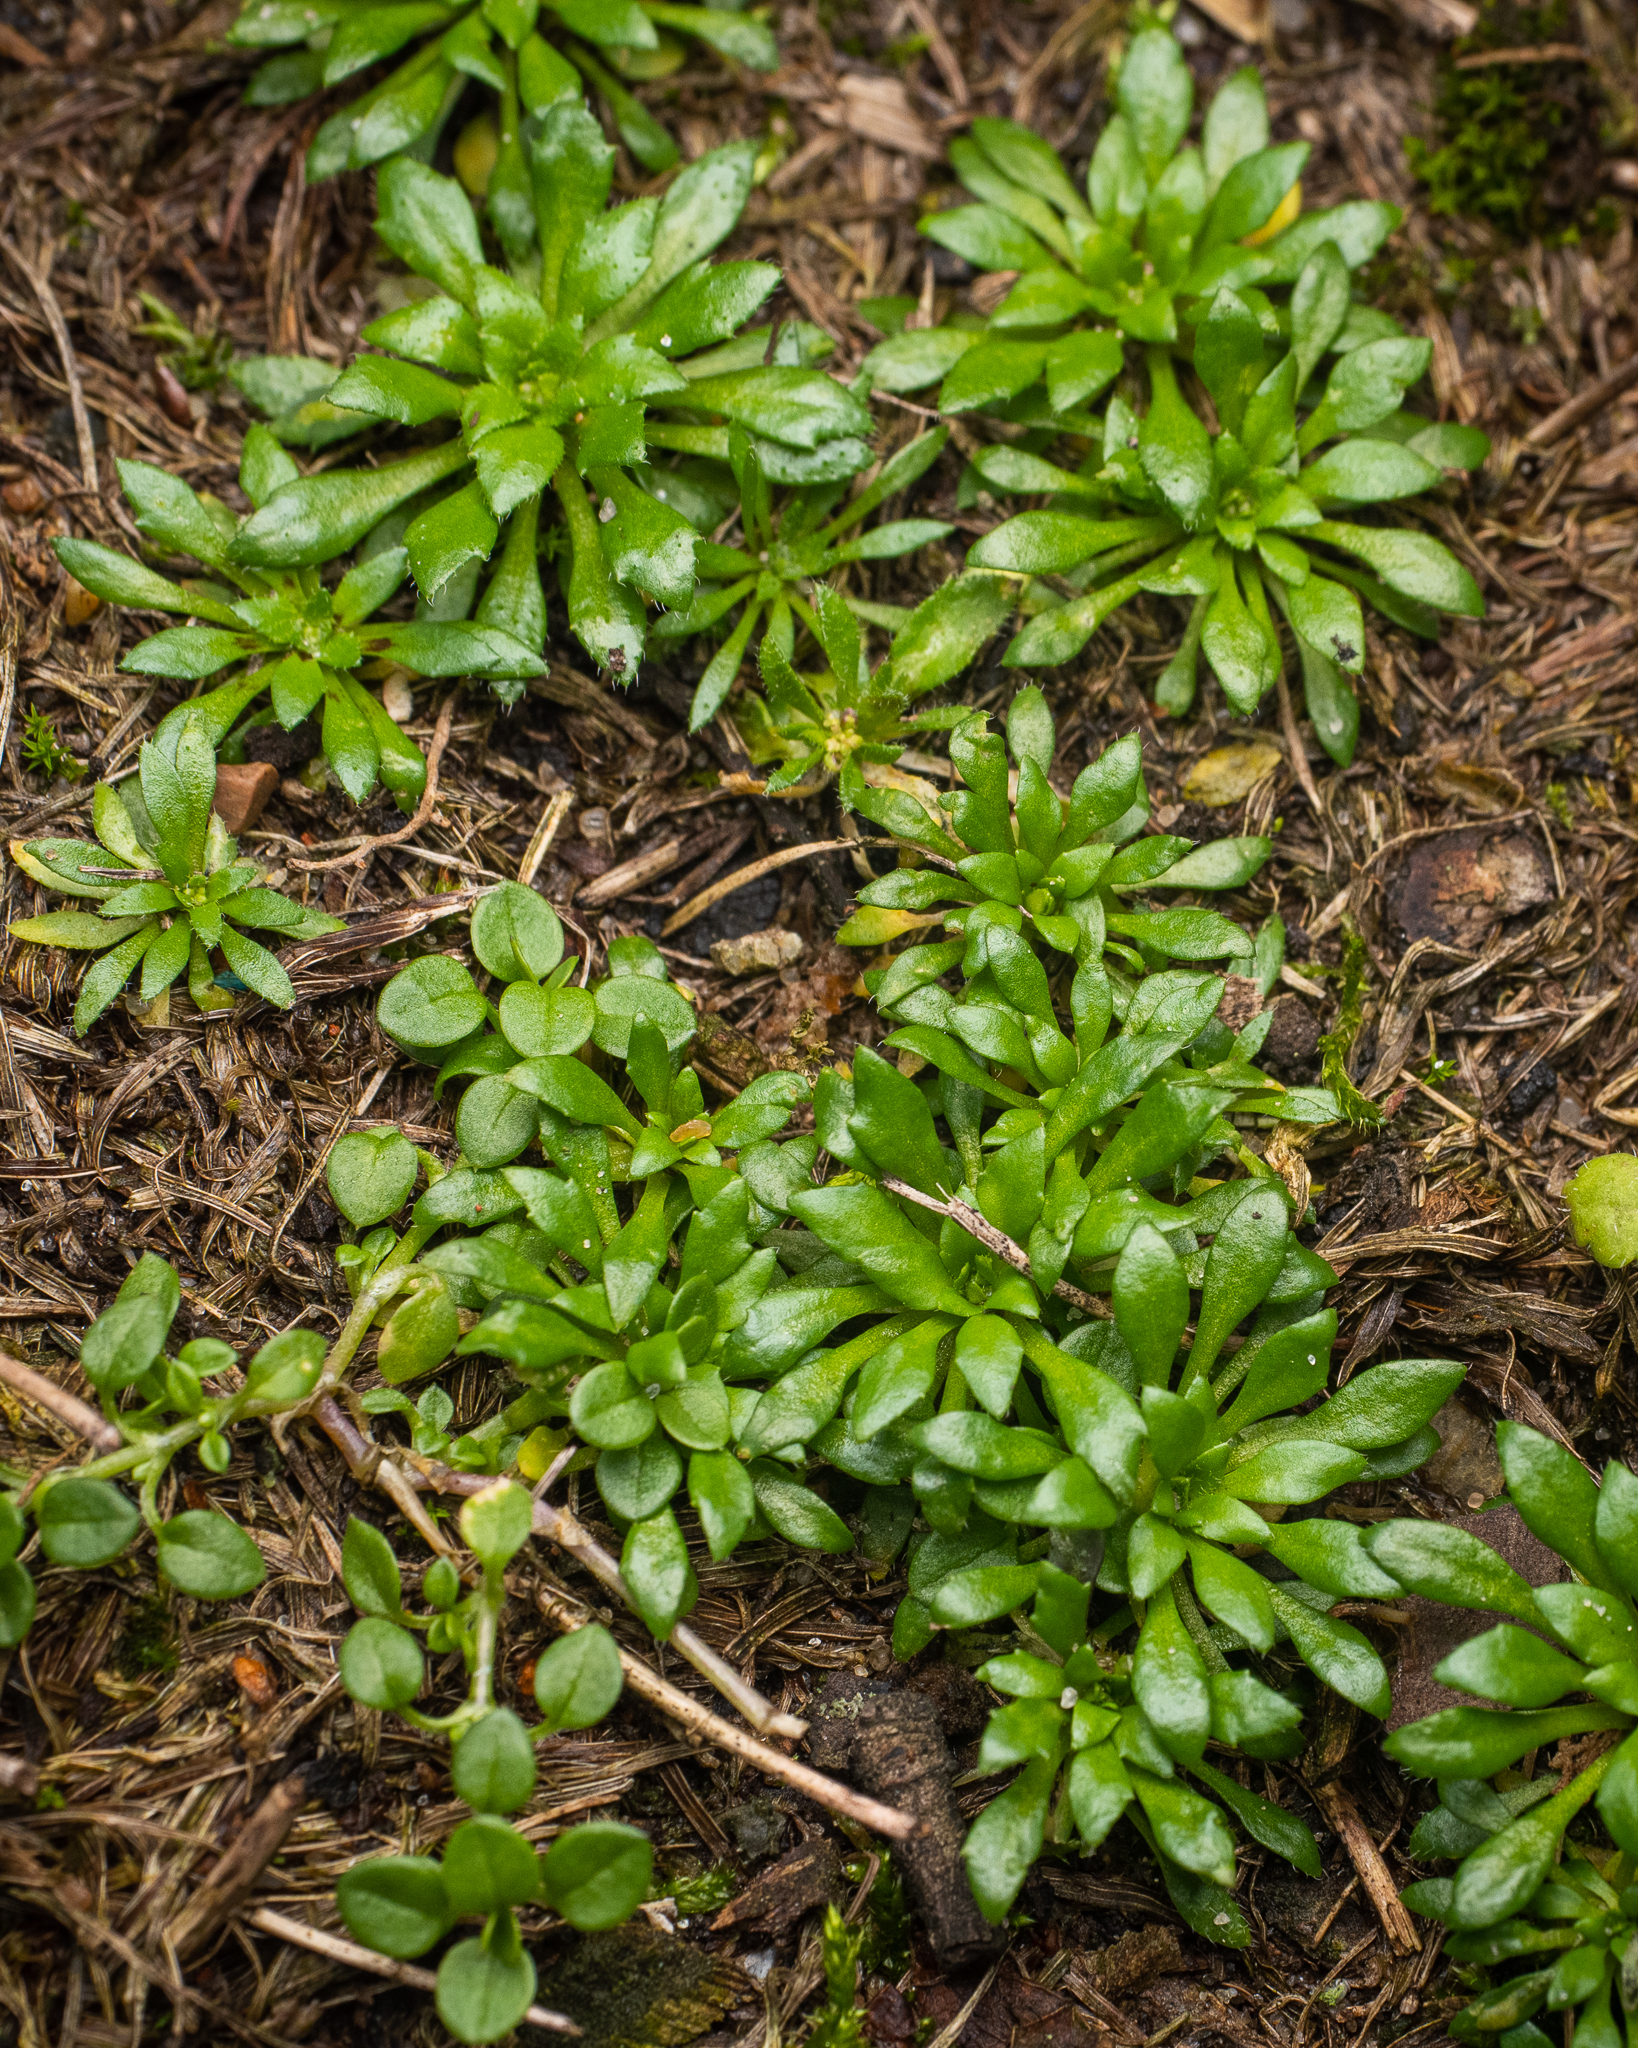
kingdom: Plantae
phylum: Tracheophyta
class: Magnoliopsida
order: Brassicales
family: Brassicaceae
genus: Draba
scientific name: Draba verna
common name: Spring draba
